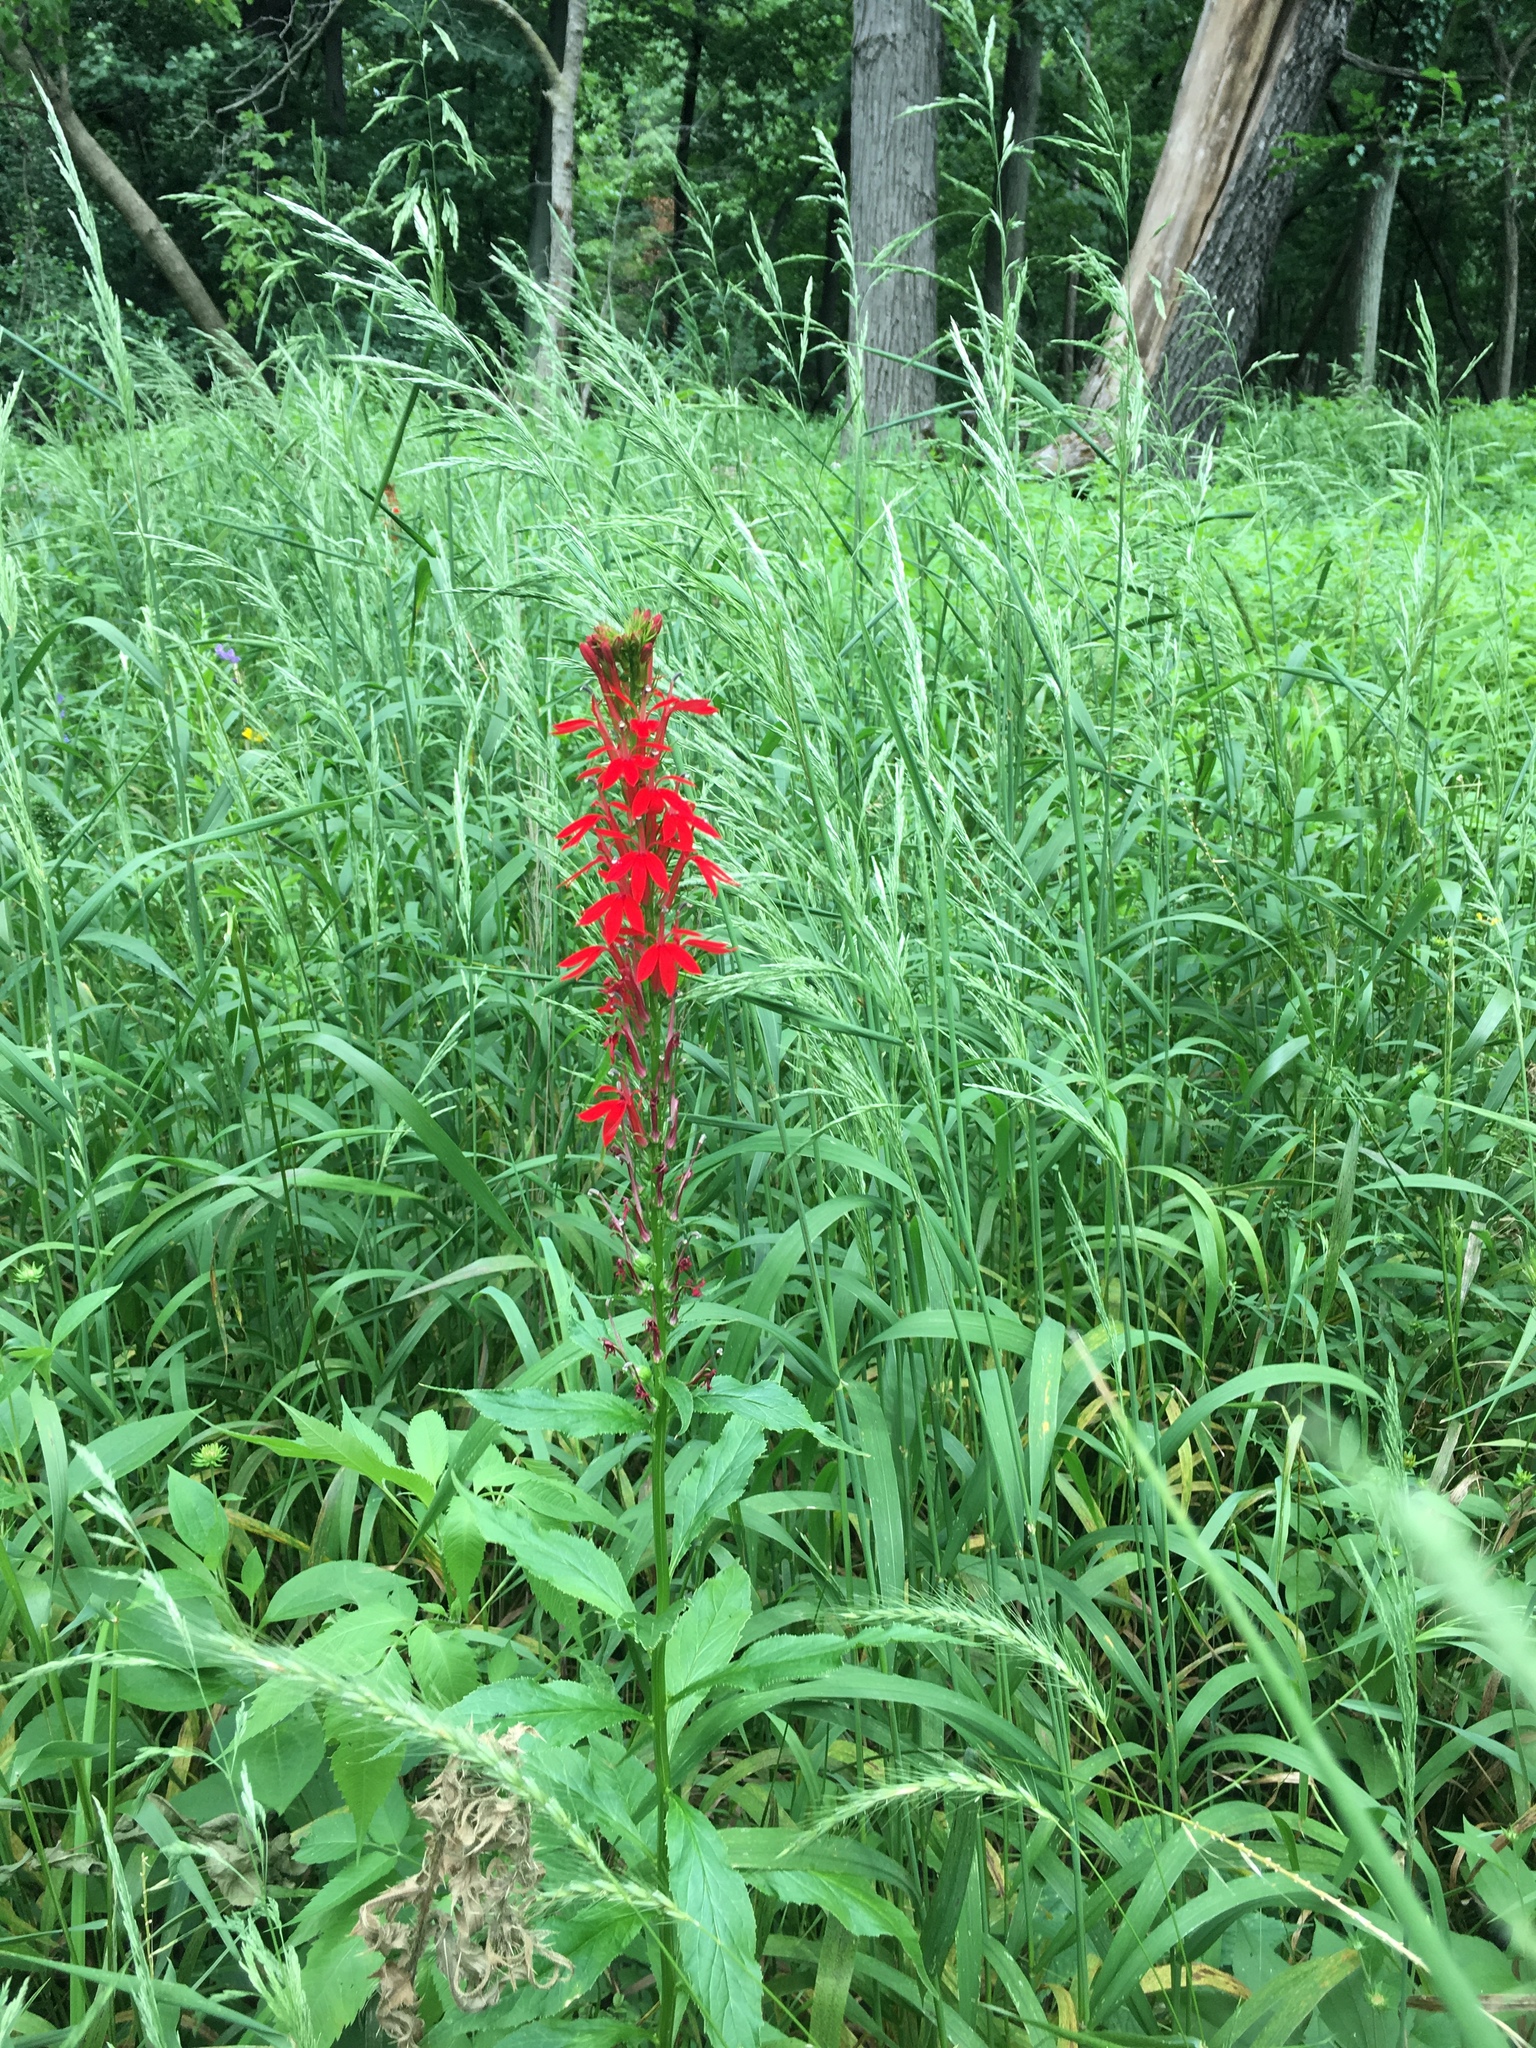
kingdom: Plantae
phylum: Tracheophyta
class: Magnoliopsida
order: Asterales
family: Campanulaceae
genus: Lobelia
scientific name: Lobelia cardinalis
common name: Cardinal flower
